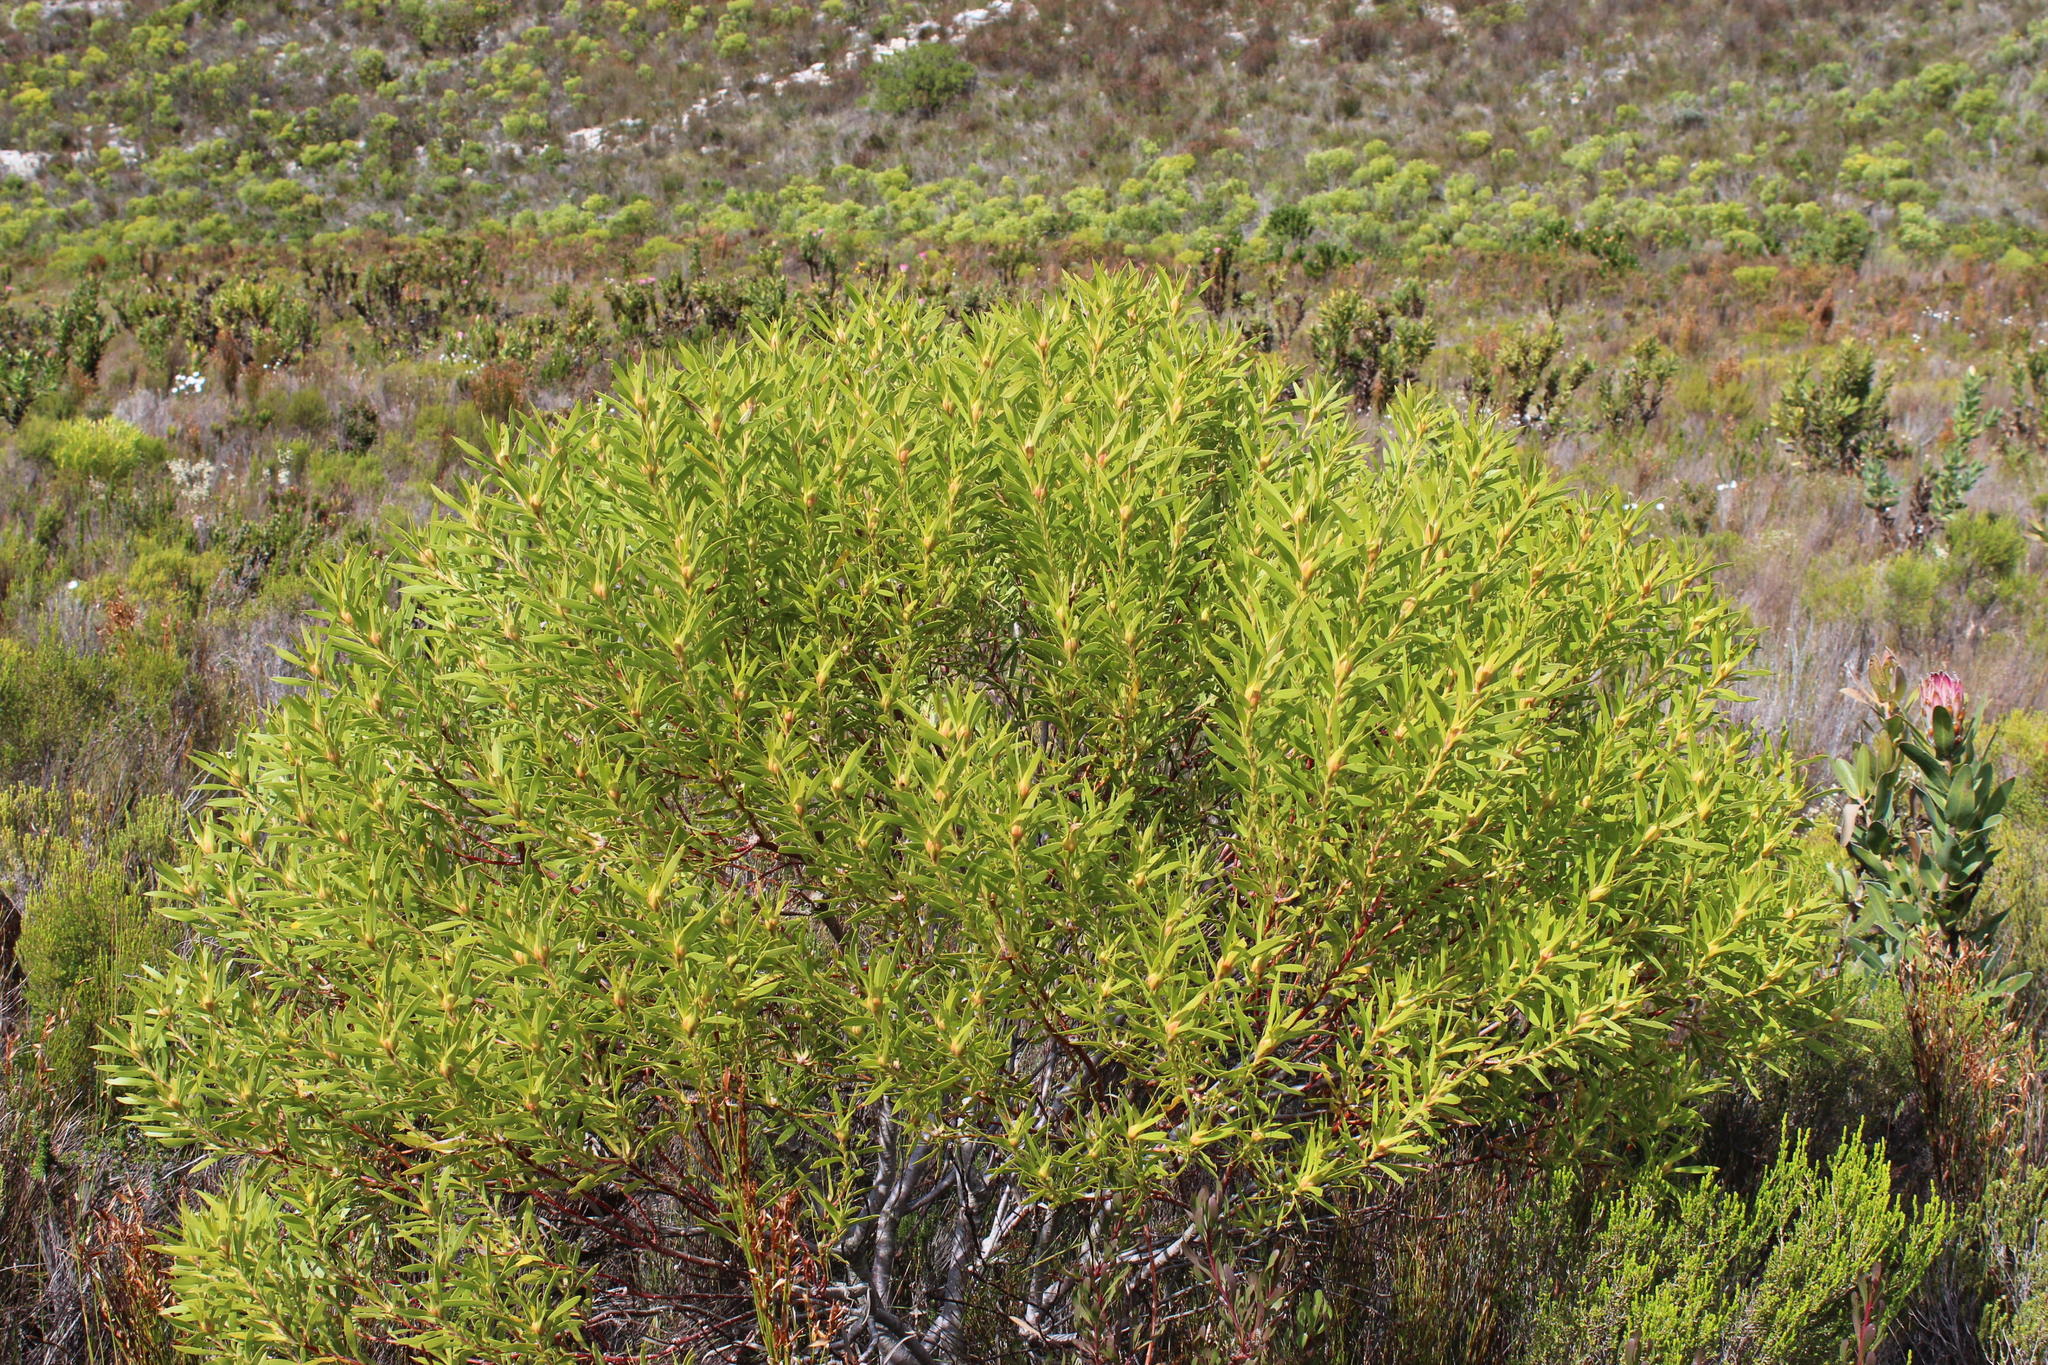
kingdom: Plantae
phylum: Tracheophyta
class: Magnoliopsida
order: Proteales
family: Proteaceae
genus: Leucadendron
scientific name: Leucadendron coniferum
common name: Dune conebush
